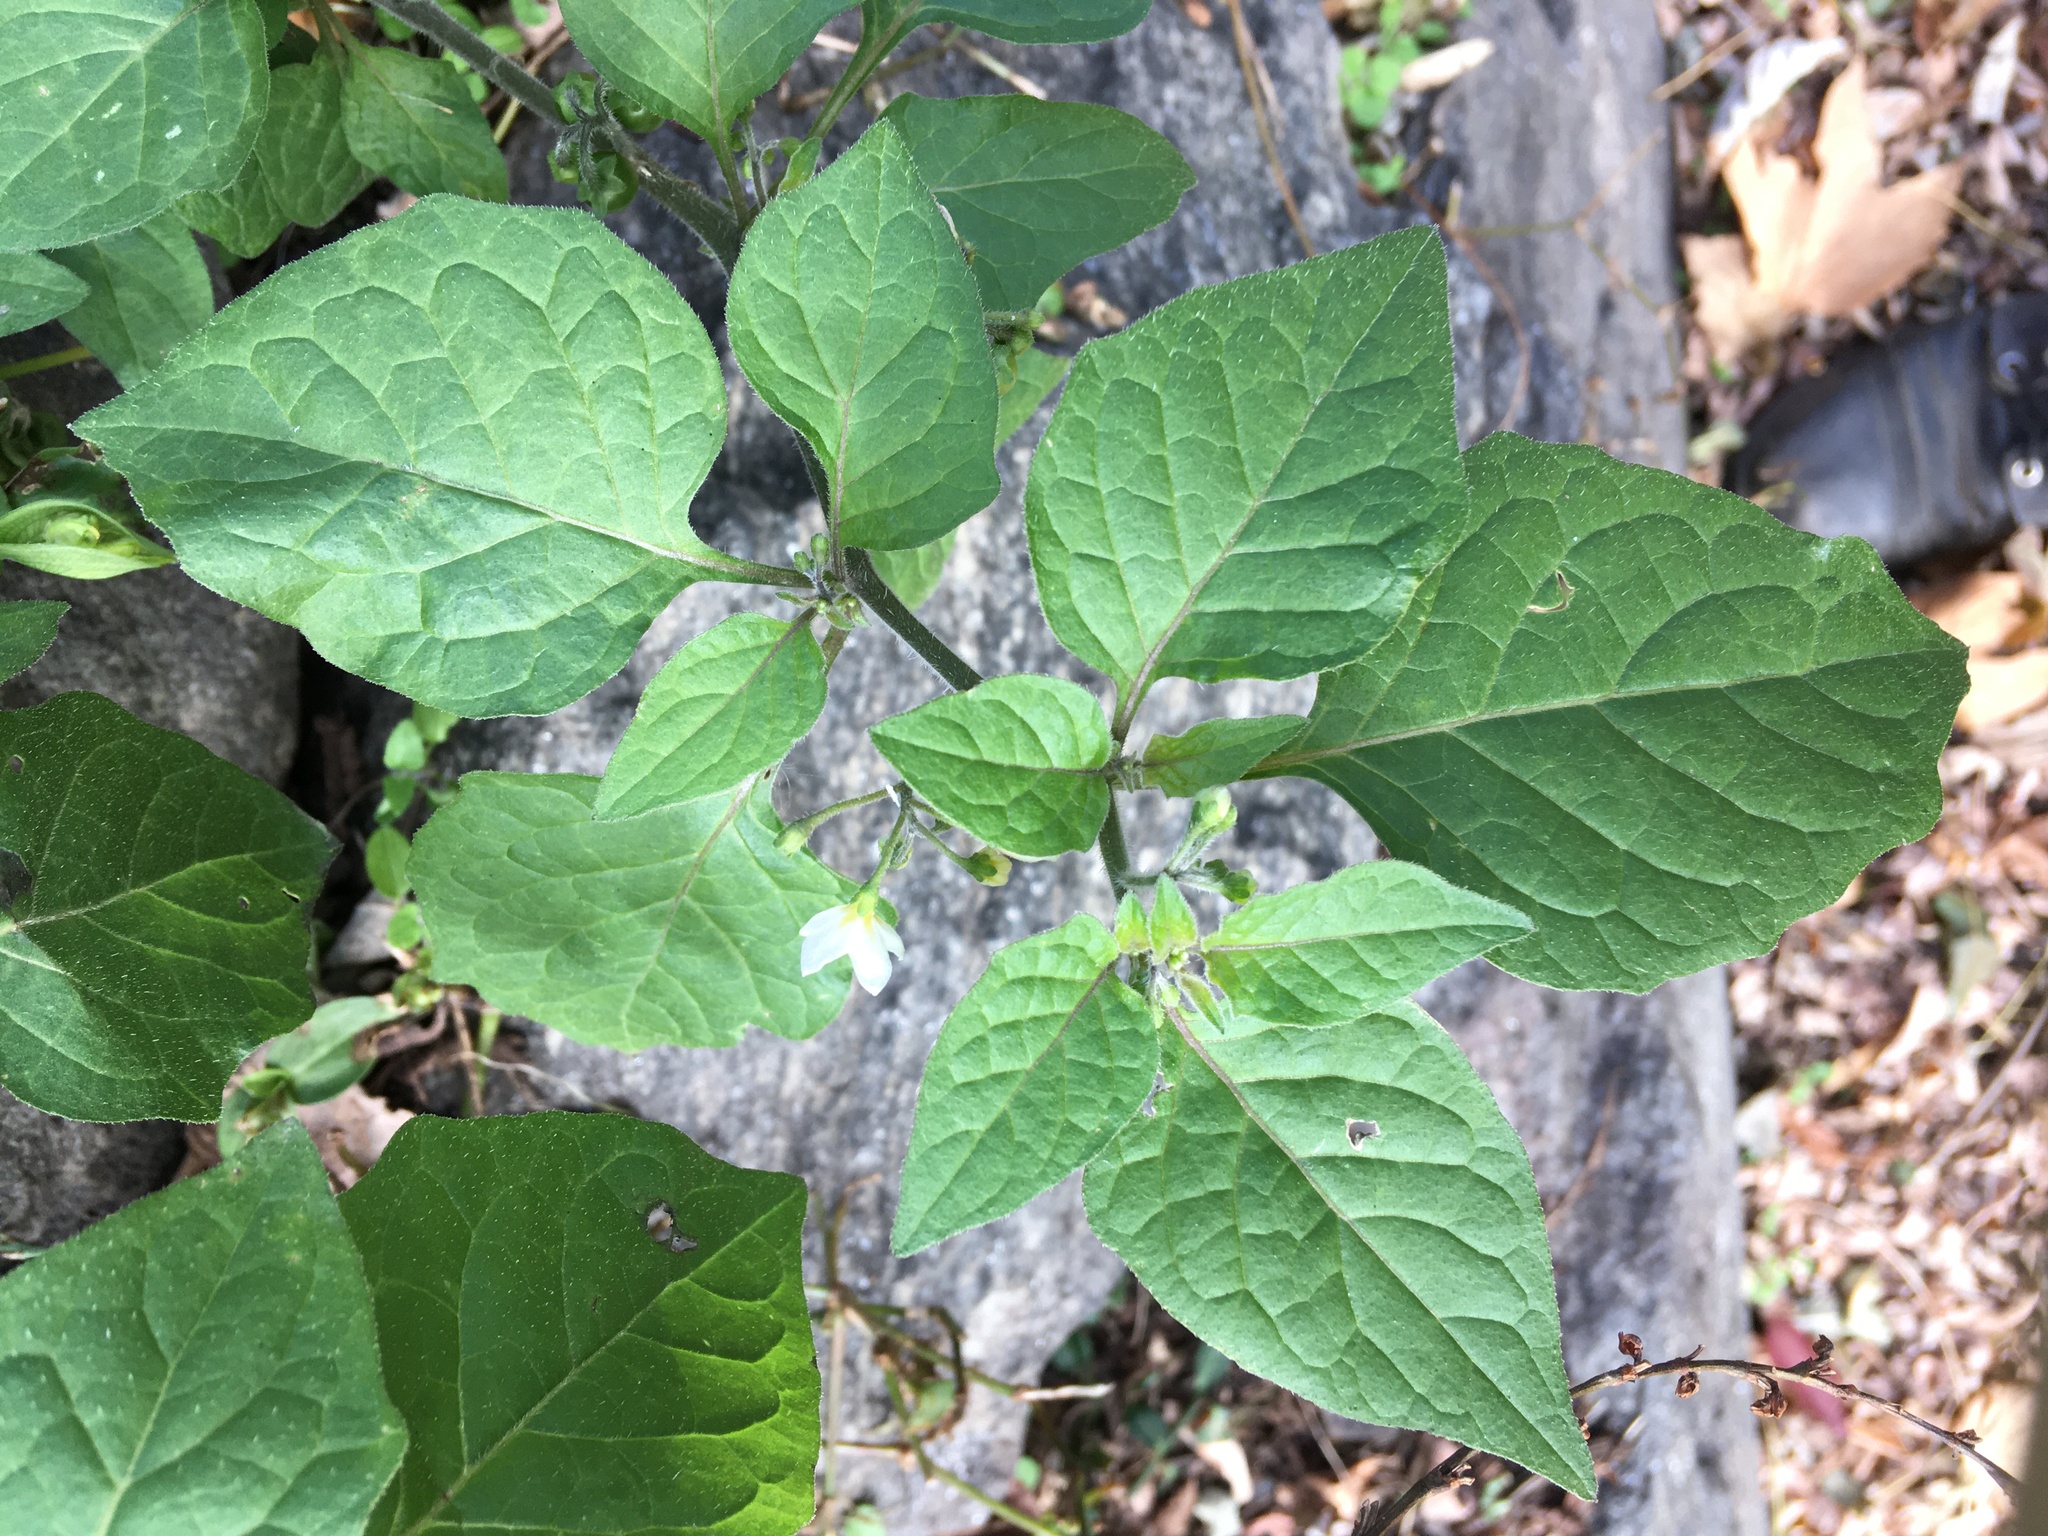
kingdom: Plantae
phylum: Tracheophyta
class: Magnoliopsida
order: Solanales
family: Solanaceae
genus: Solanum
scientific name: Solanum nigrum
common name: Black nightshade
